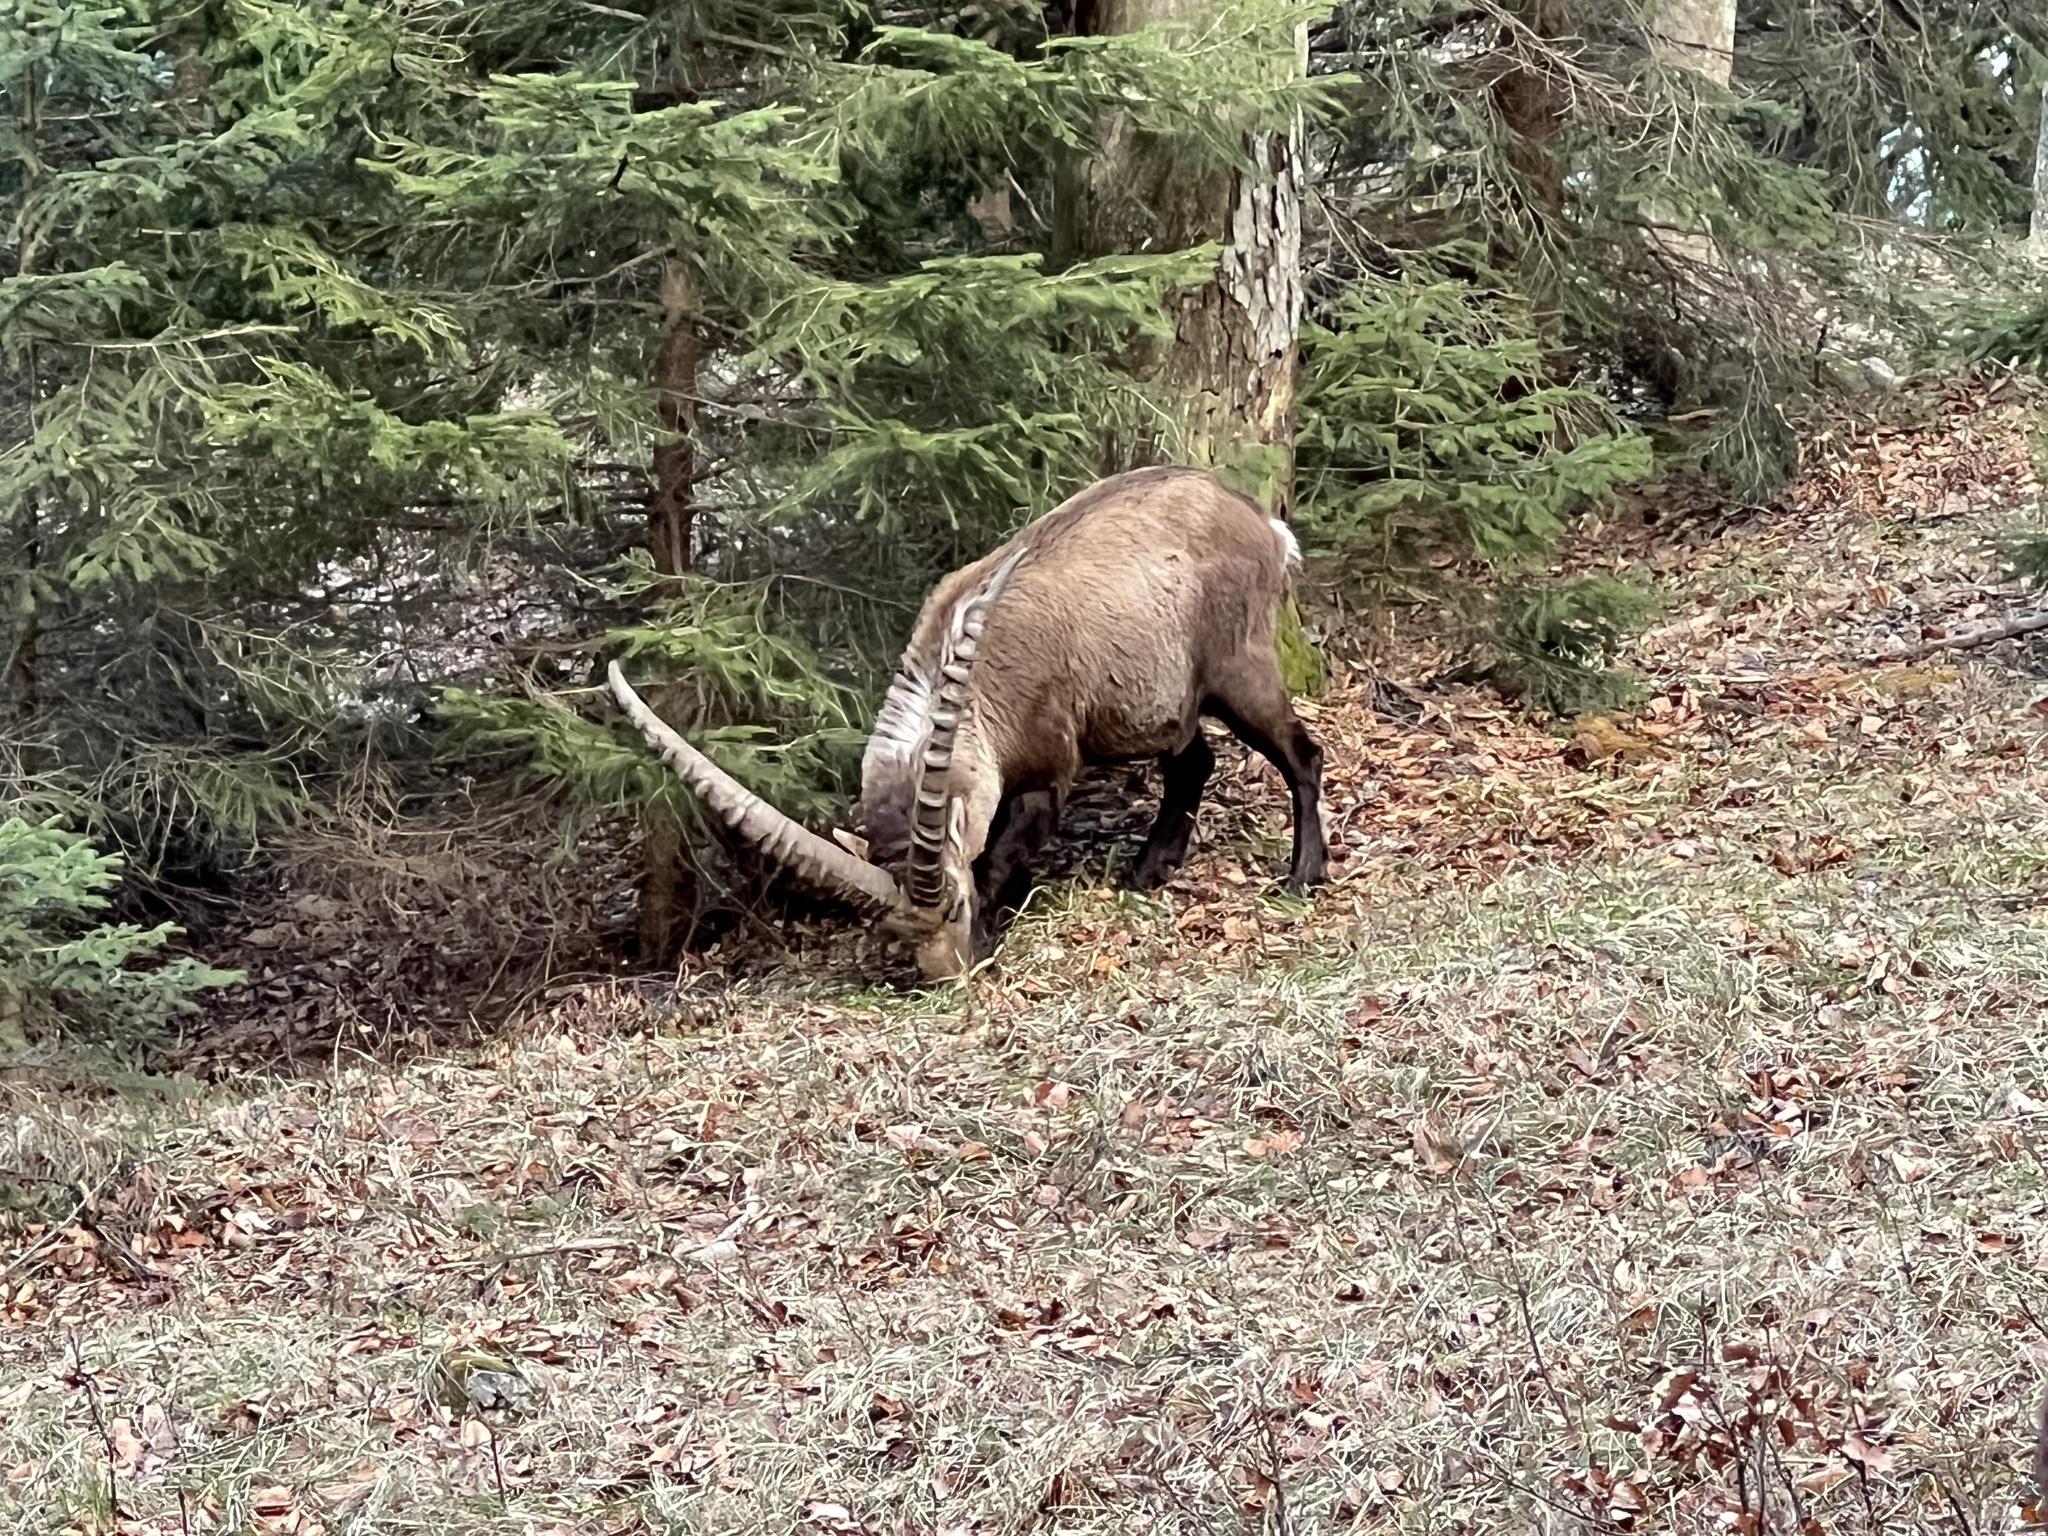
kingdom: Animalia
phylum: Chordata
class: Mammalia
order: Artiodactyla
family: Bovidae
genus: Capra
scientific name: Capra ibex
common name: Alpine ibex
